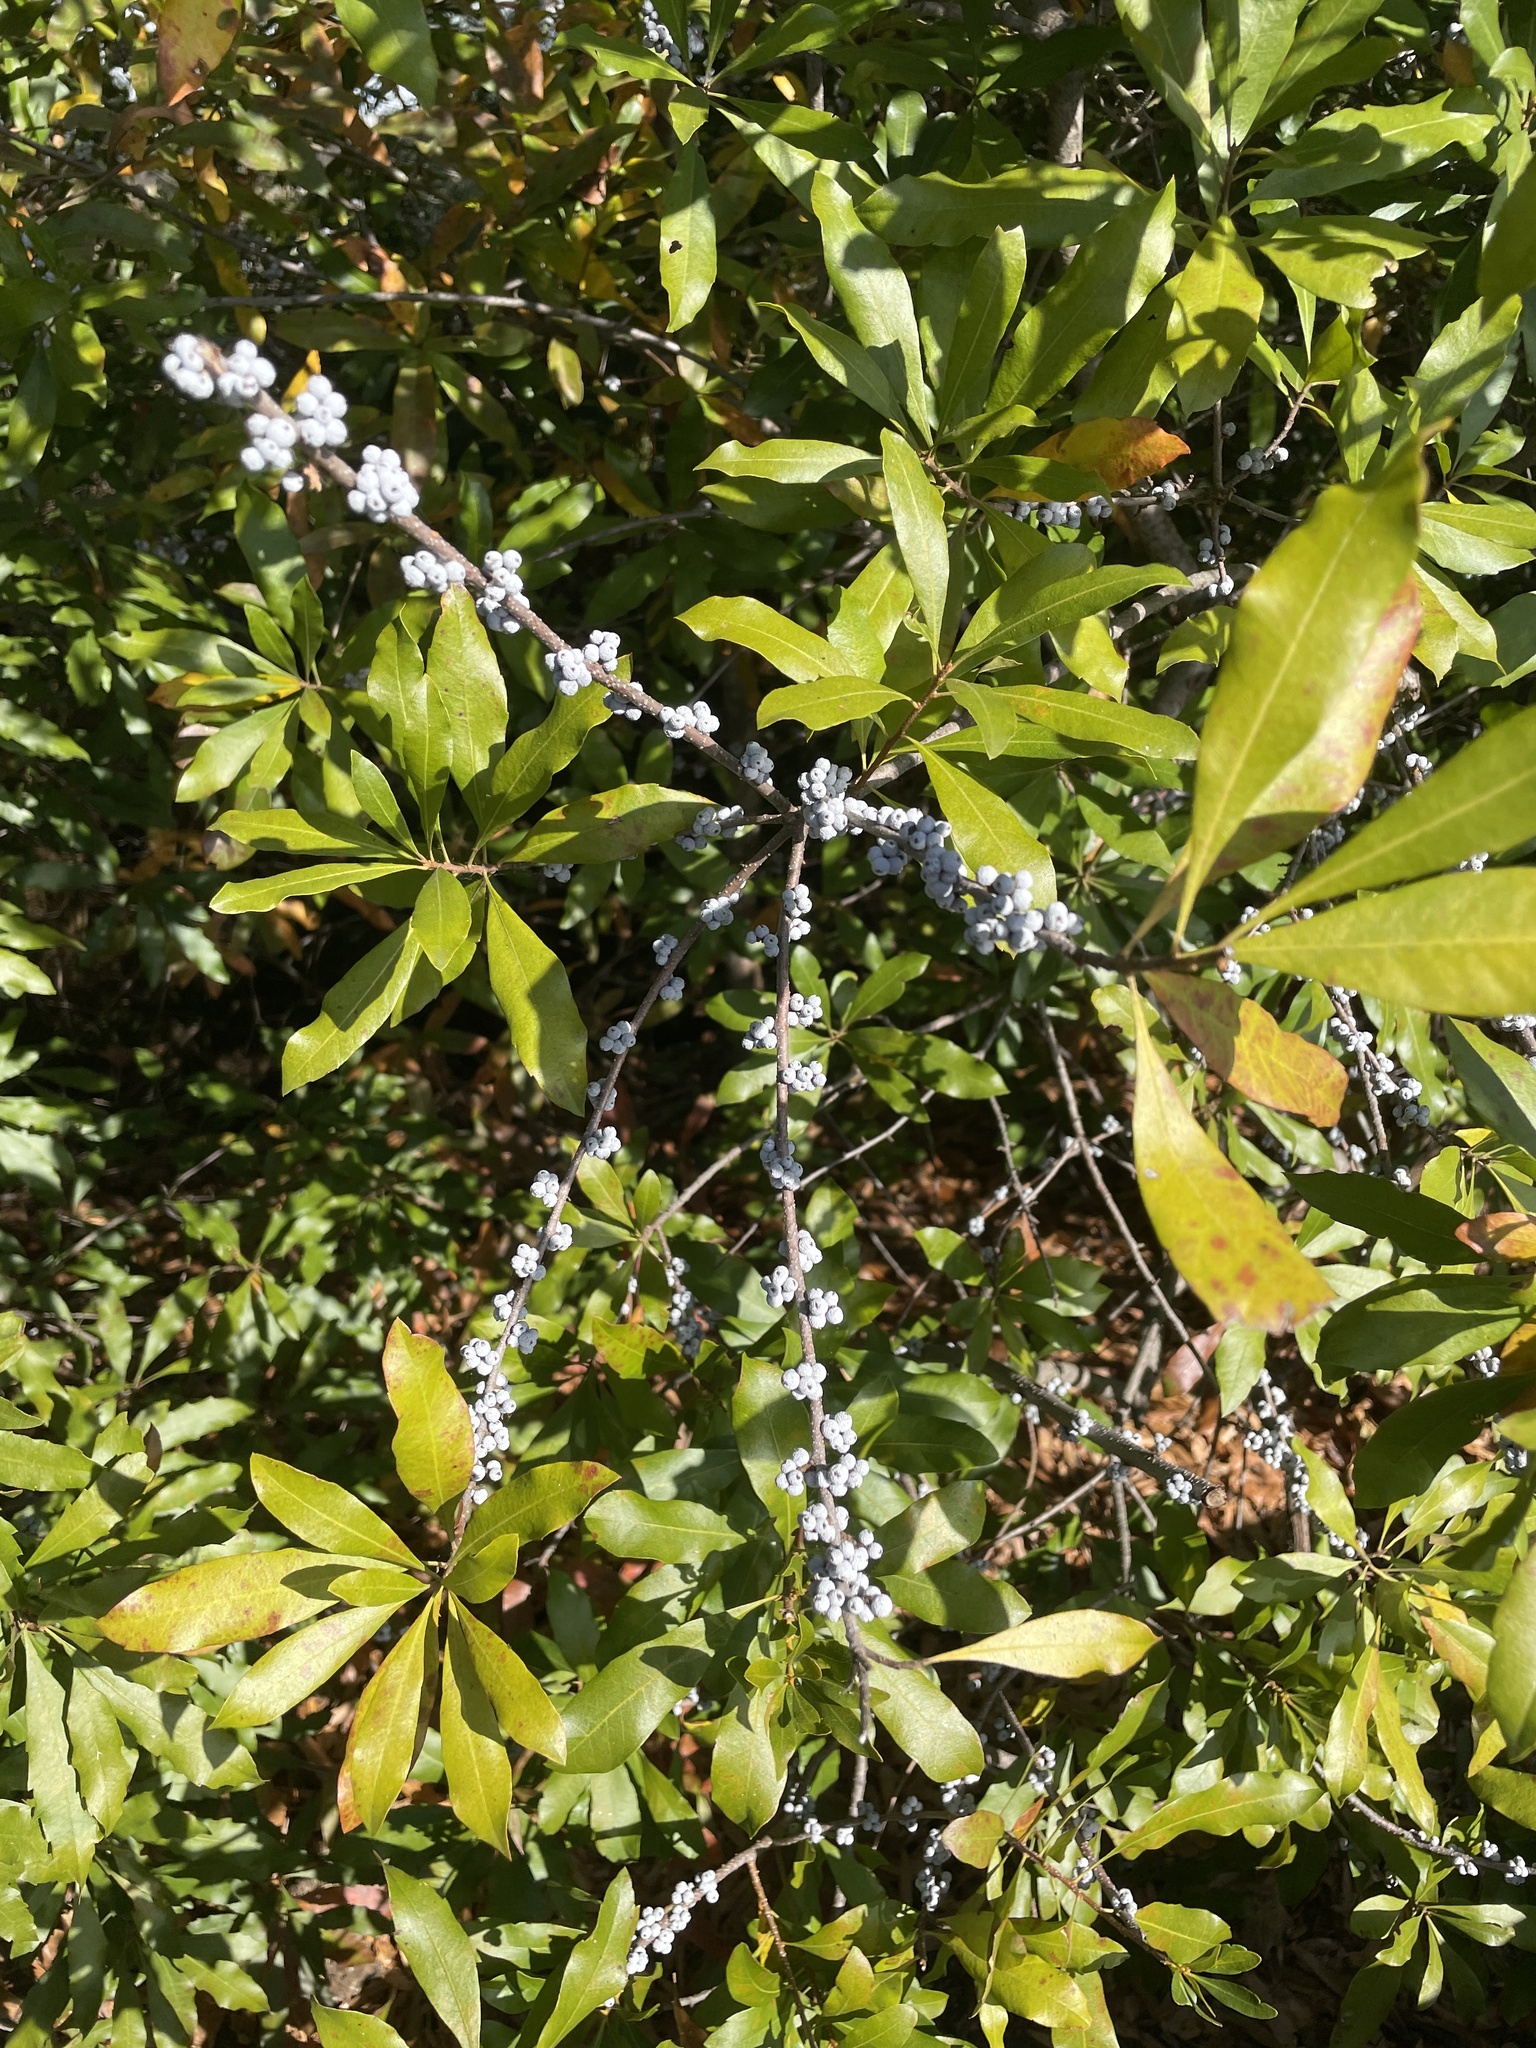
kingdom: Plantae
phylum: Tracheophyta
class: Magnoliopsida
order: Fagales
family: Myricaceae
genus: Morella
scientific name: Morella cerifera
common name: Wax myrtle
